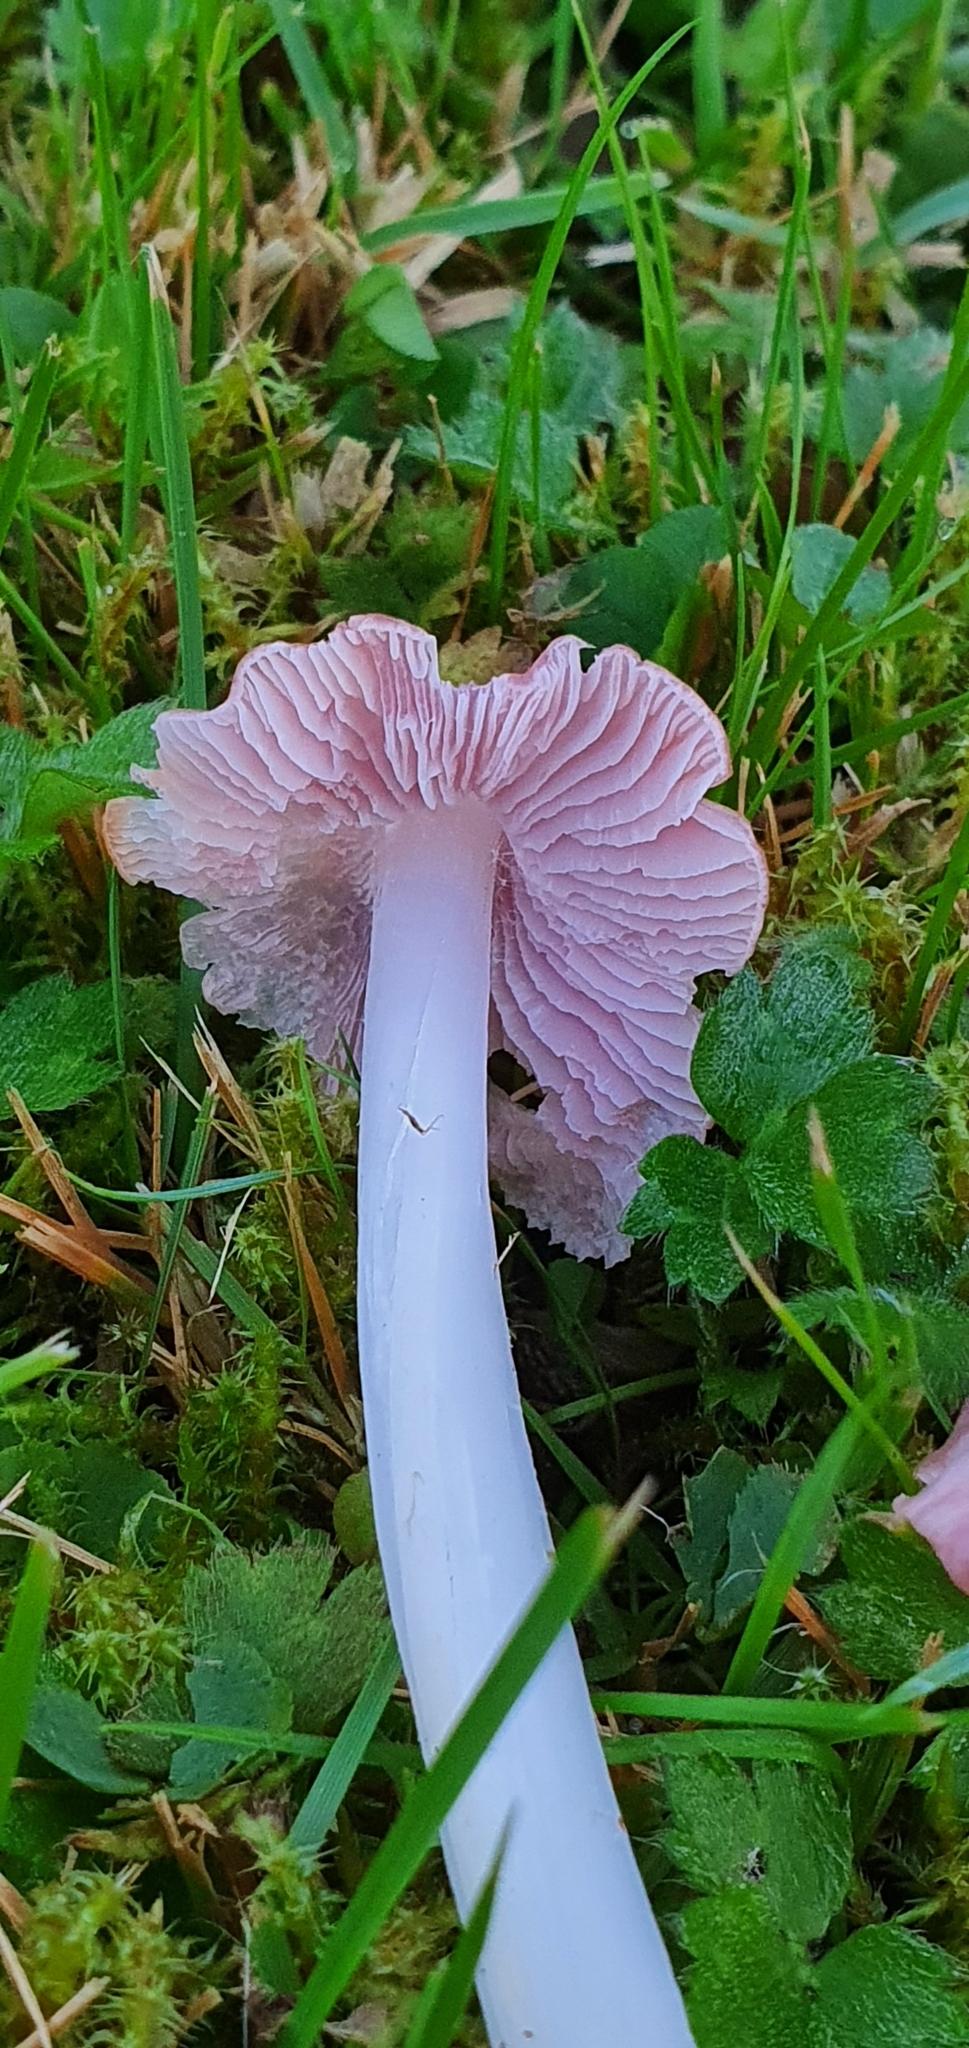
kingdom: Fungi
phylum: Basidiomycota
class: Agaricomycetes
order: Agaricales
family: Hygrophoraceae
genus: Porpolomopsis
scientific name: Porpolomopsis calyptriformis
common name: Pink waxcap
